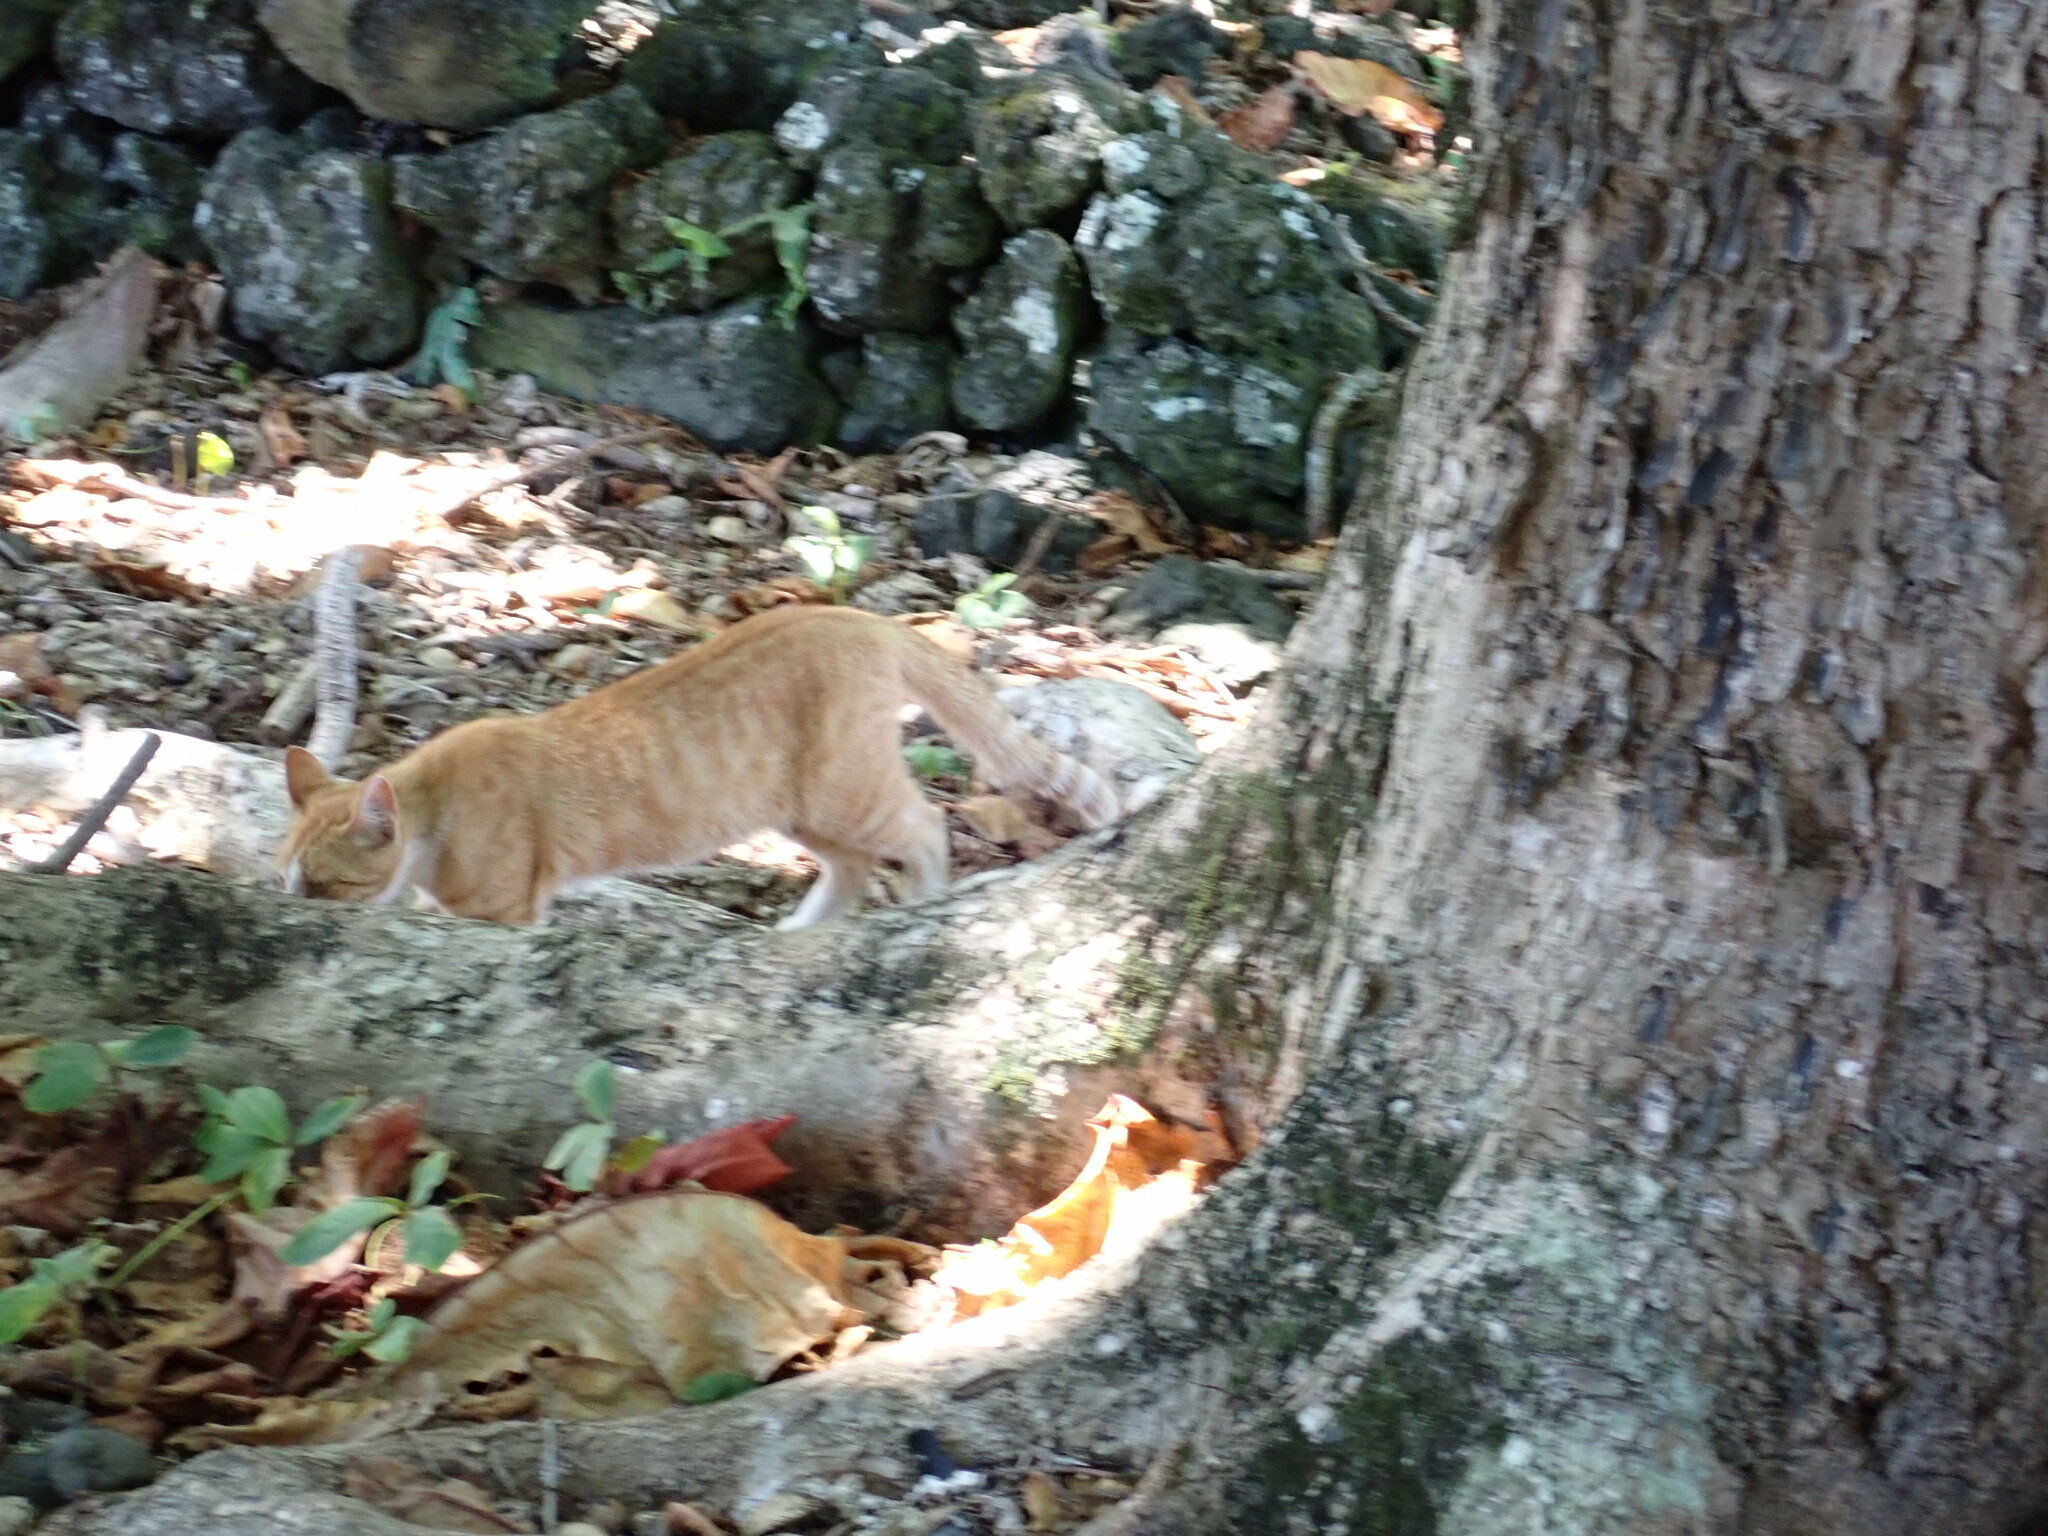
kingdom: Animalia
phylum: Chordata
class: Mammalia
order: Carnivora
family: Felidae
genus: Felis
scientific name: Felis catus
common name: Domestic cat
